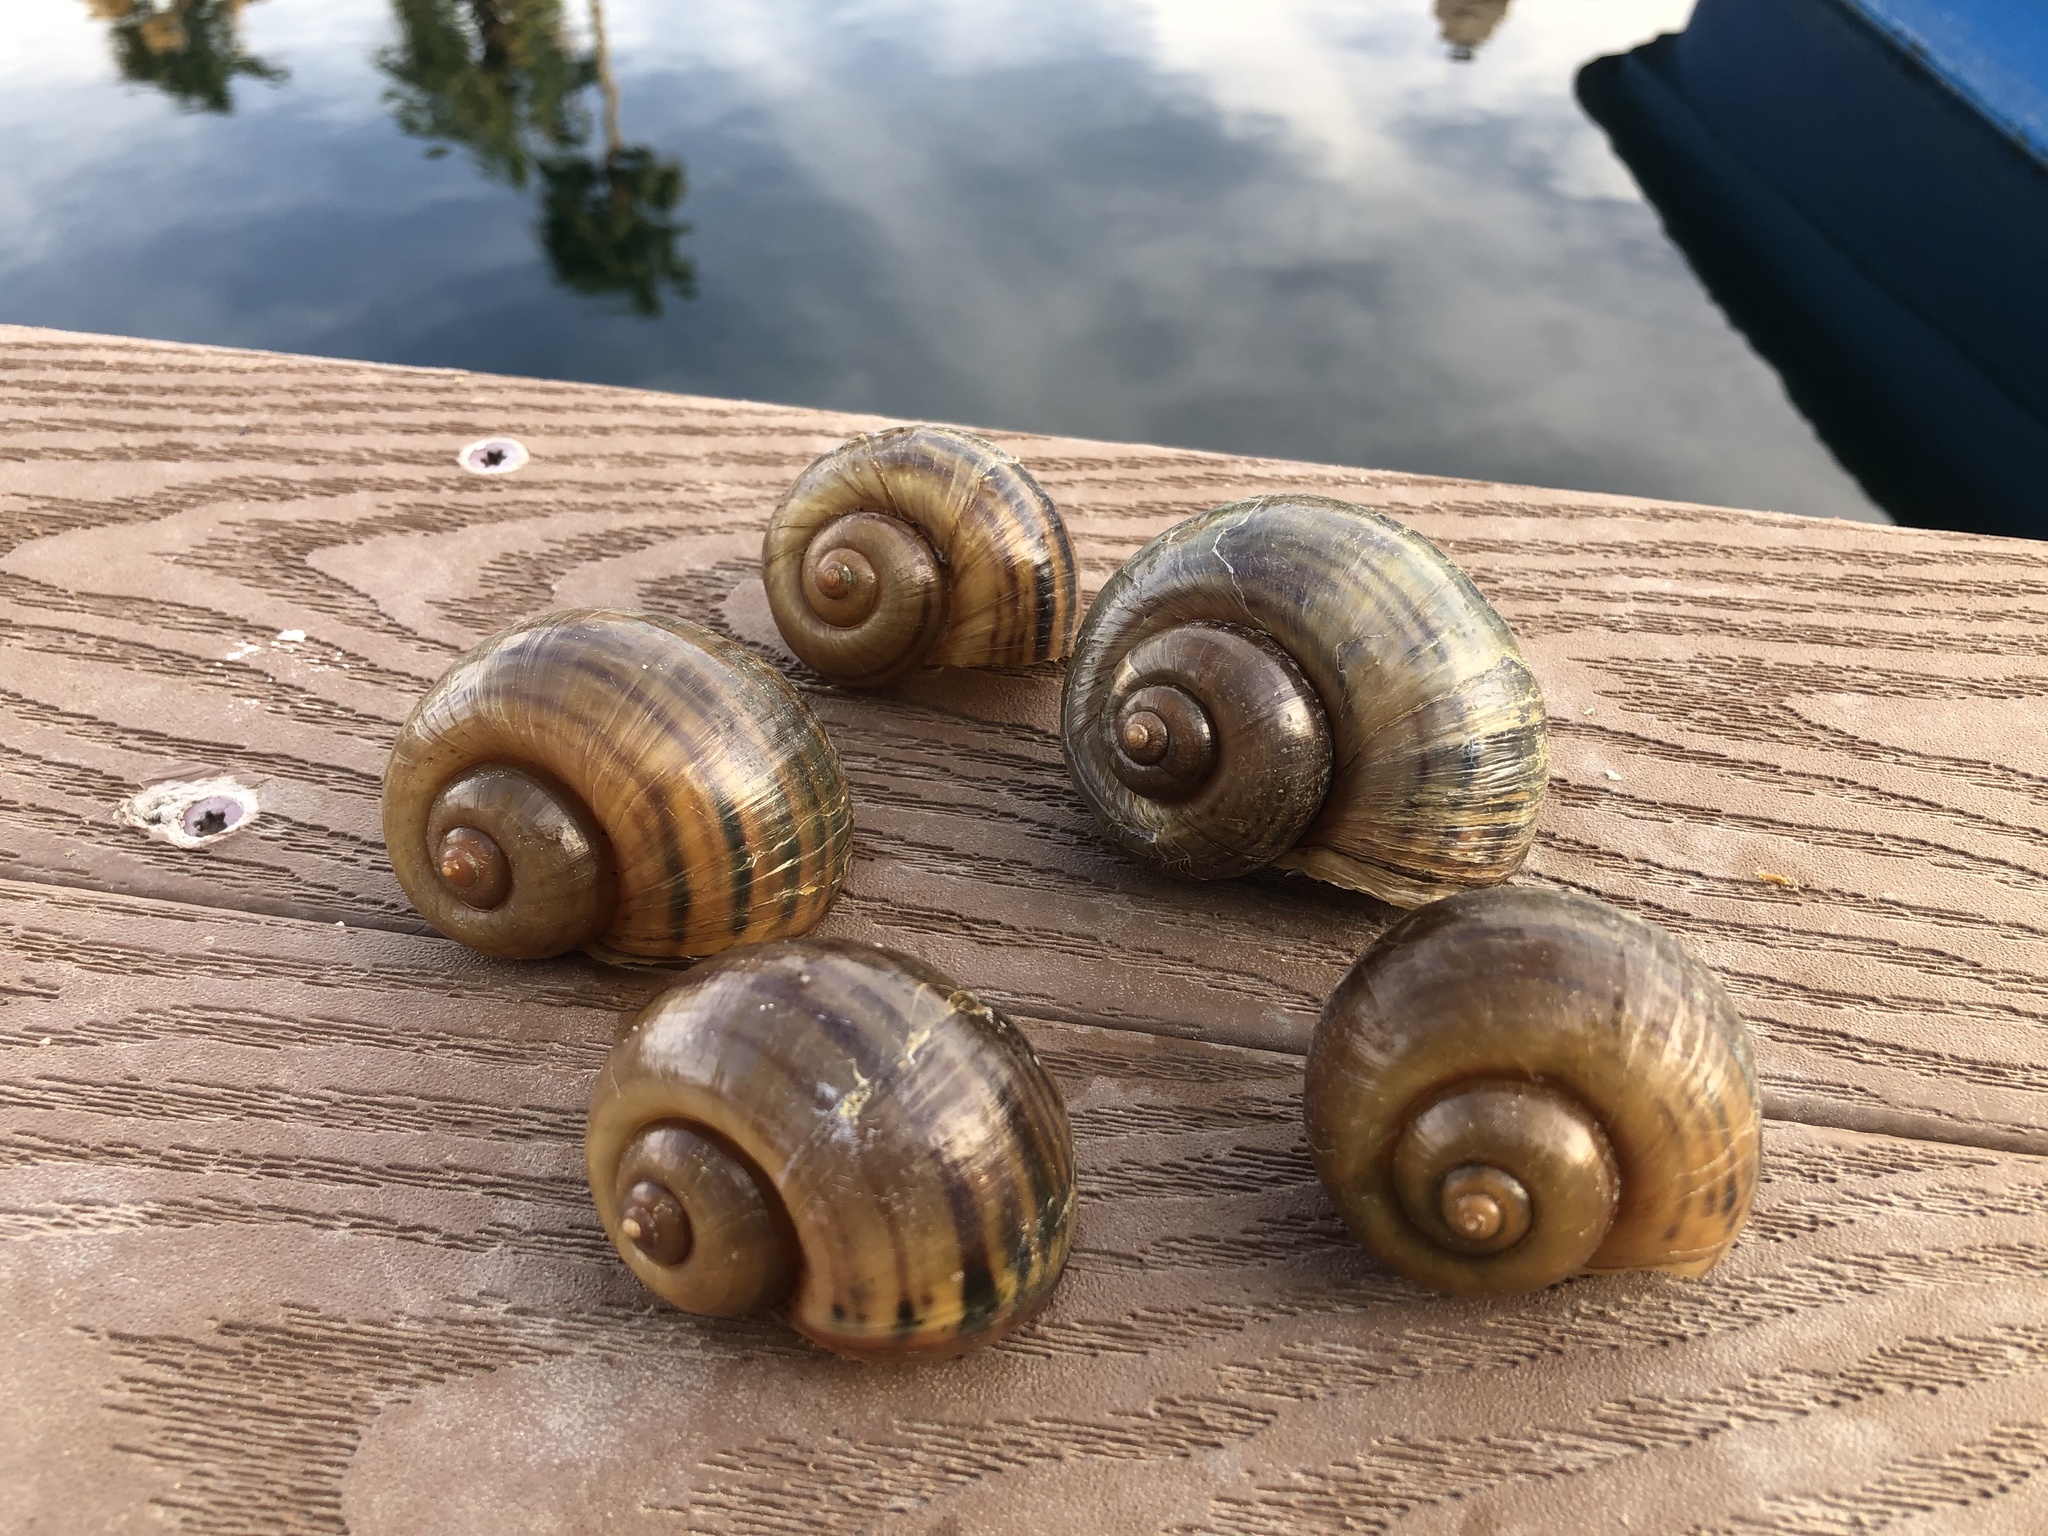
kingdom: Animalia
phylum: Mollusca
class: Gastropoda
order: Architaenioglossa
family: Ampullariidae
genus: Pomacea
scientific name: Pomacea canaliculata
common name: Channeled applesnail
